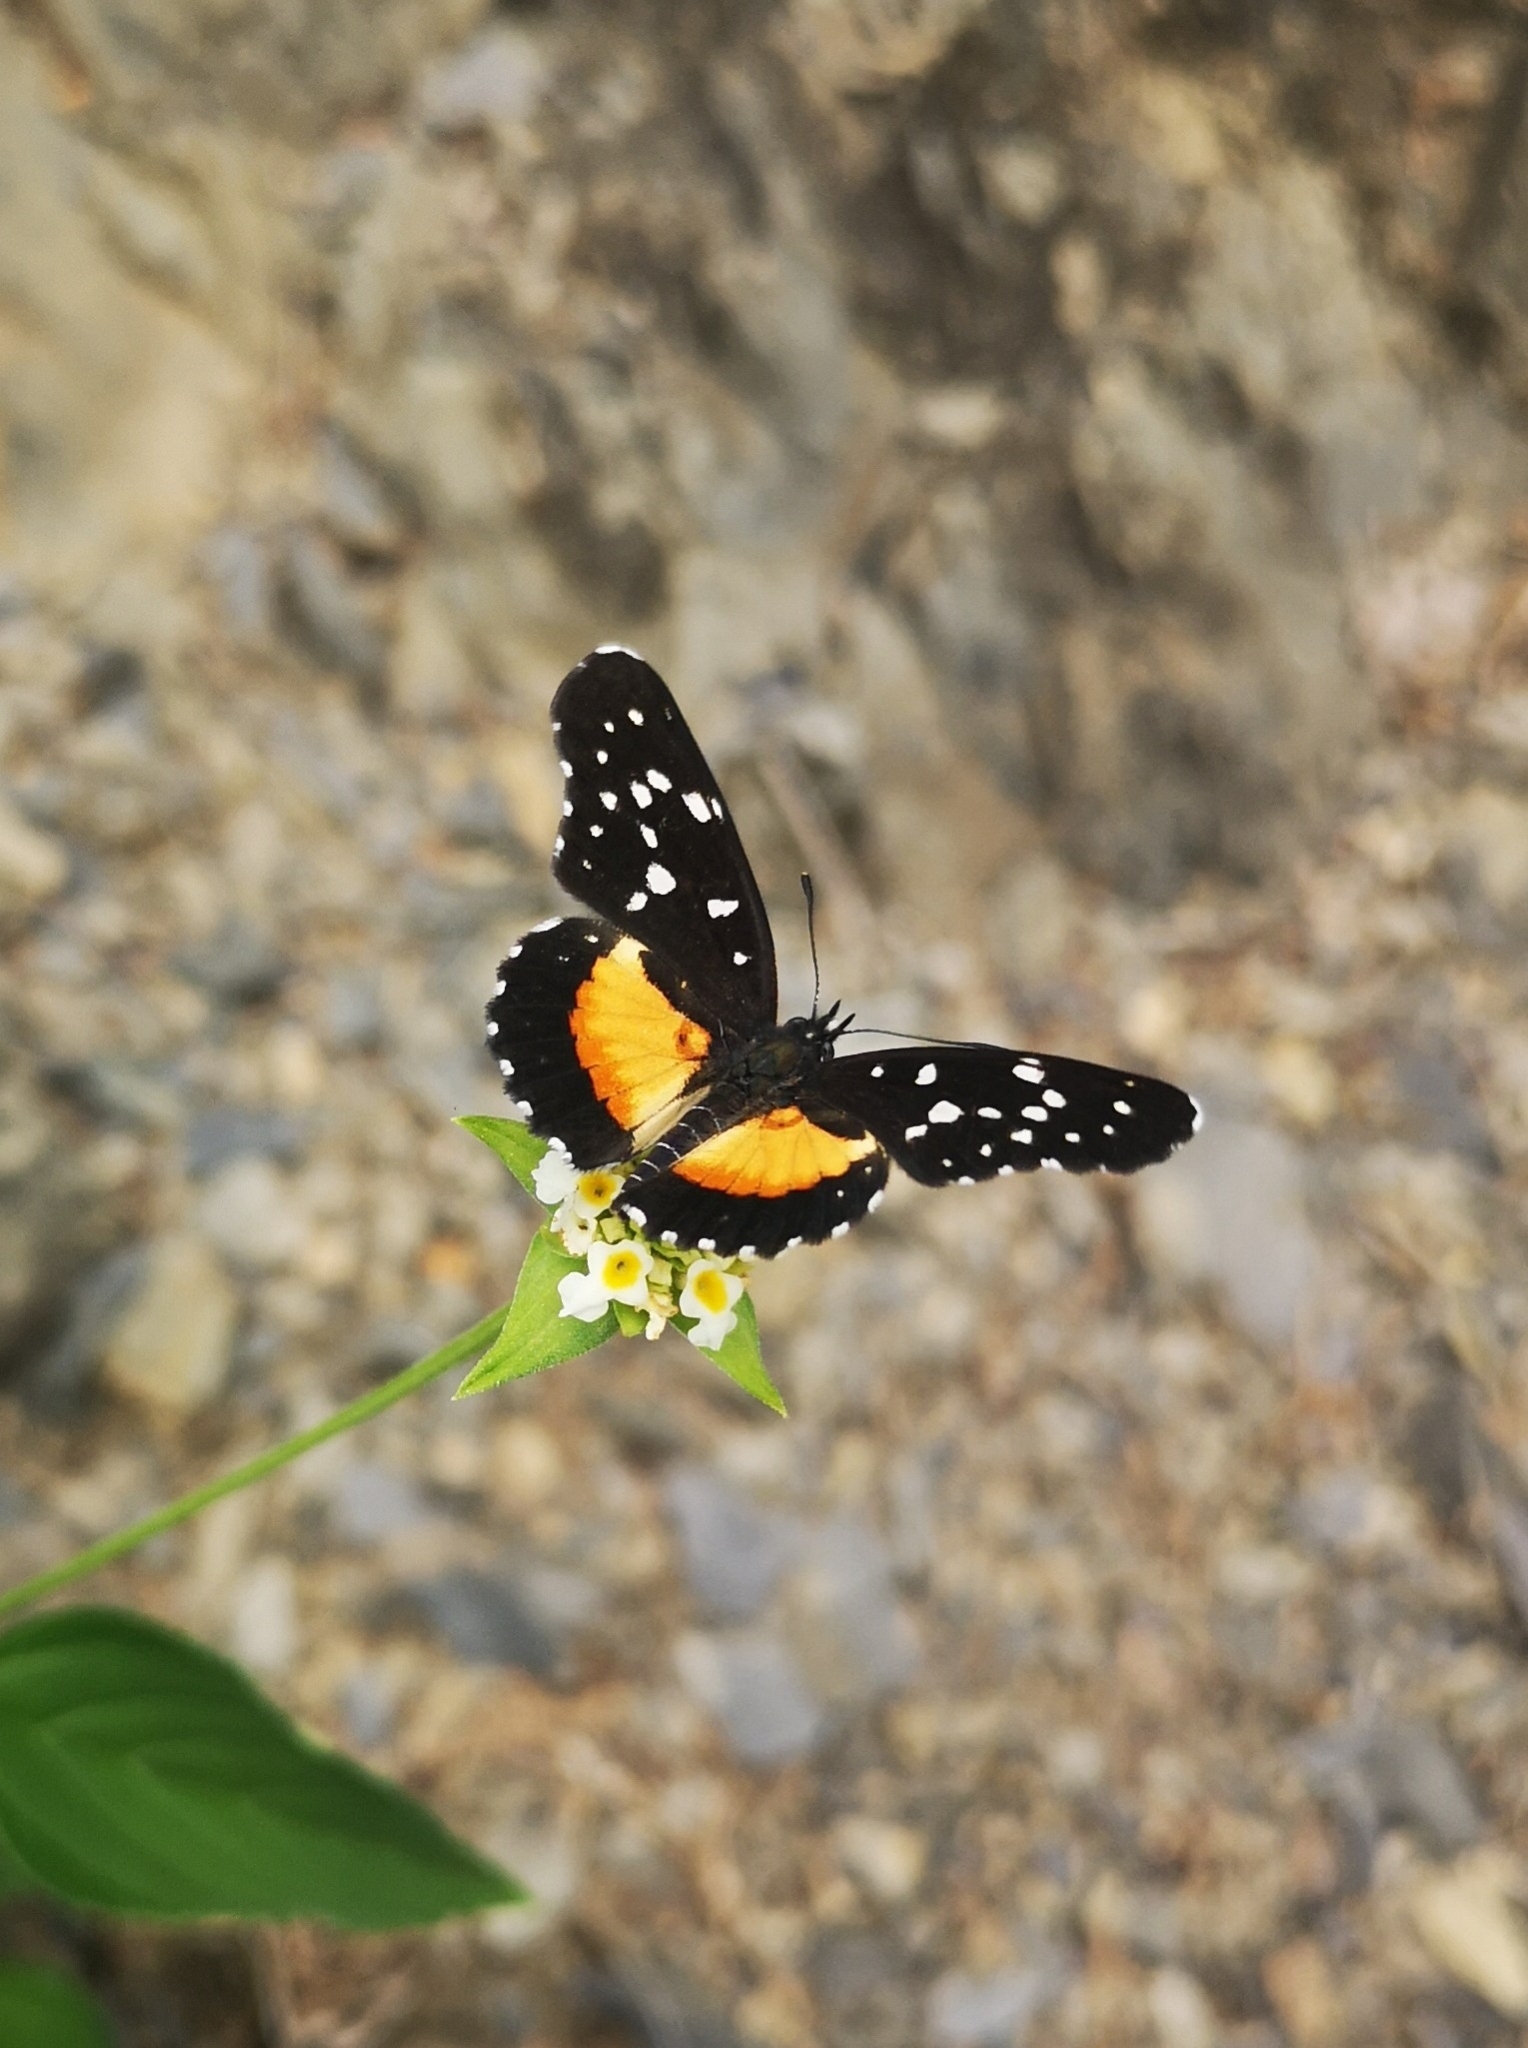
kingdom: Animalia
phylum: Arthropoda
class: Insecta
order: Lepidoptera
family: Nymphalidae
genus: Chlosyne
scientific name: Chlosyne rosita
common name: Rosita patch
